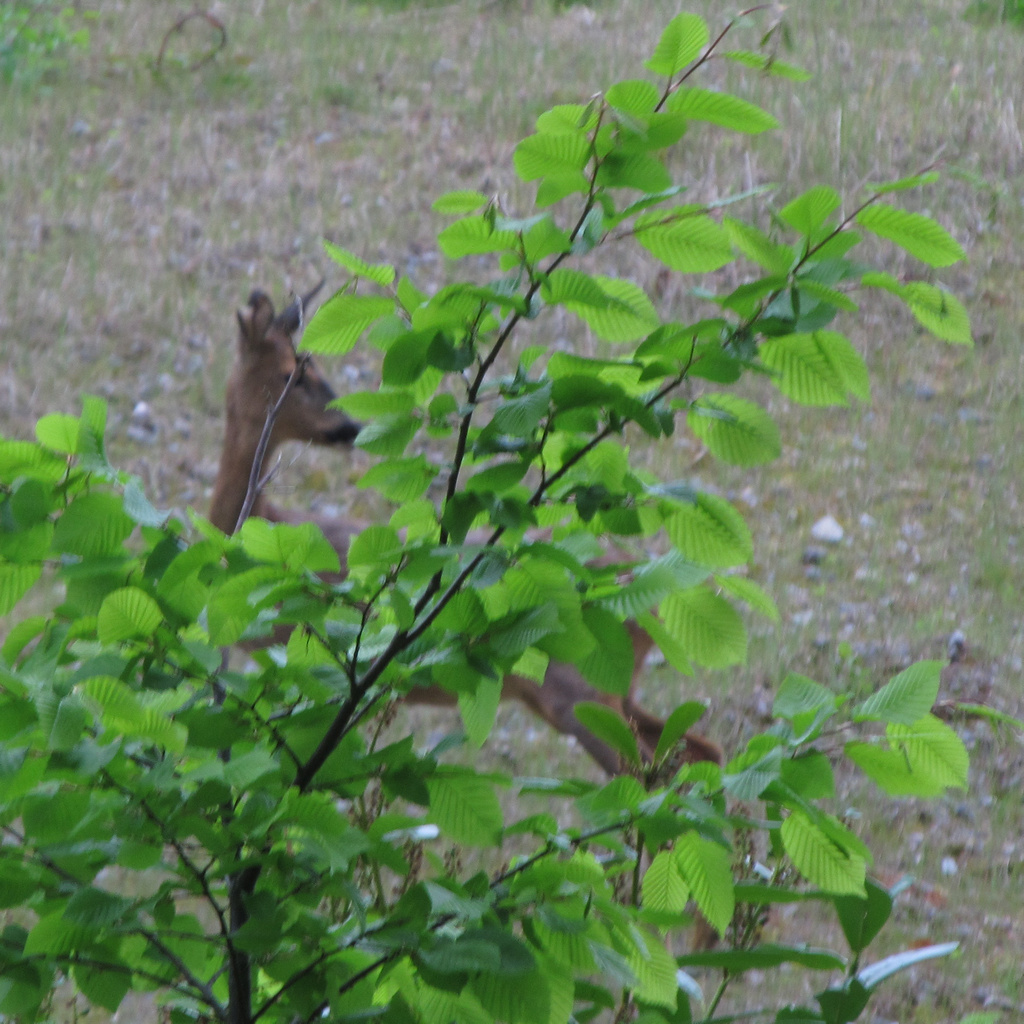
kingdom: Animalia
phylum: Chordata
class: Mammalia
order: Artiodactyla
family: Cervidae
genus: Capreolus
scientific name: Capreolus capreolus
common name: Western roe deer
